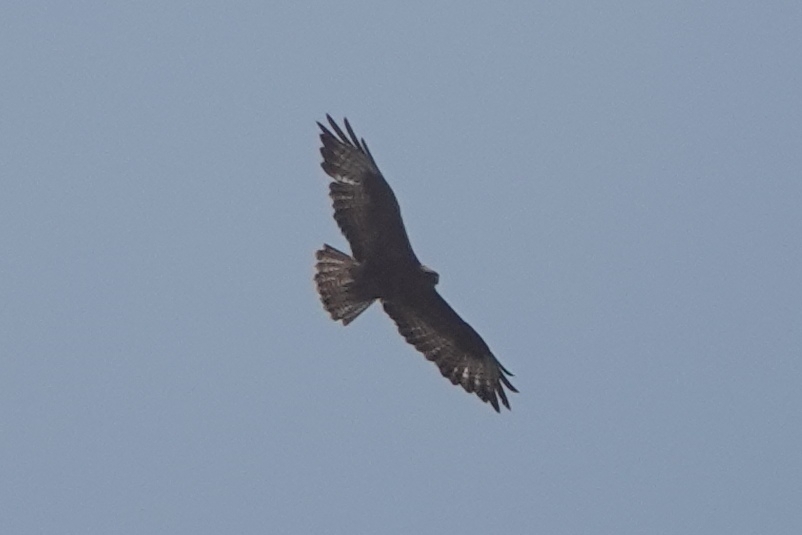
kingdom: Animalia
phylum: Chordata
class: Aves
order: Accipitriformes
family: Accipitridae
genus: Buteo
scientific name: Buteo buteo
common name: Common buzzard
